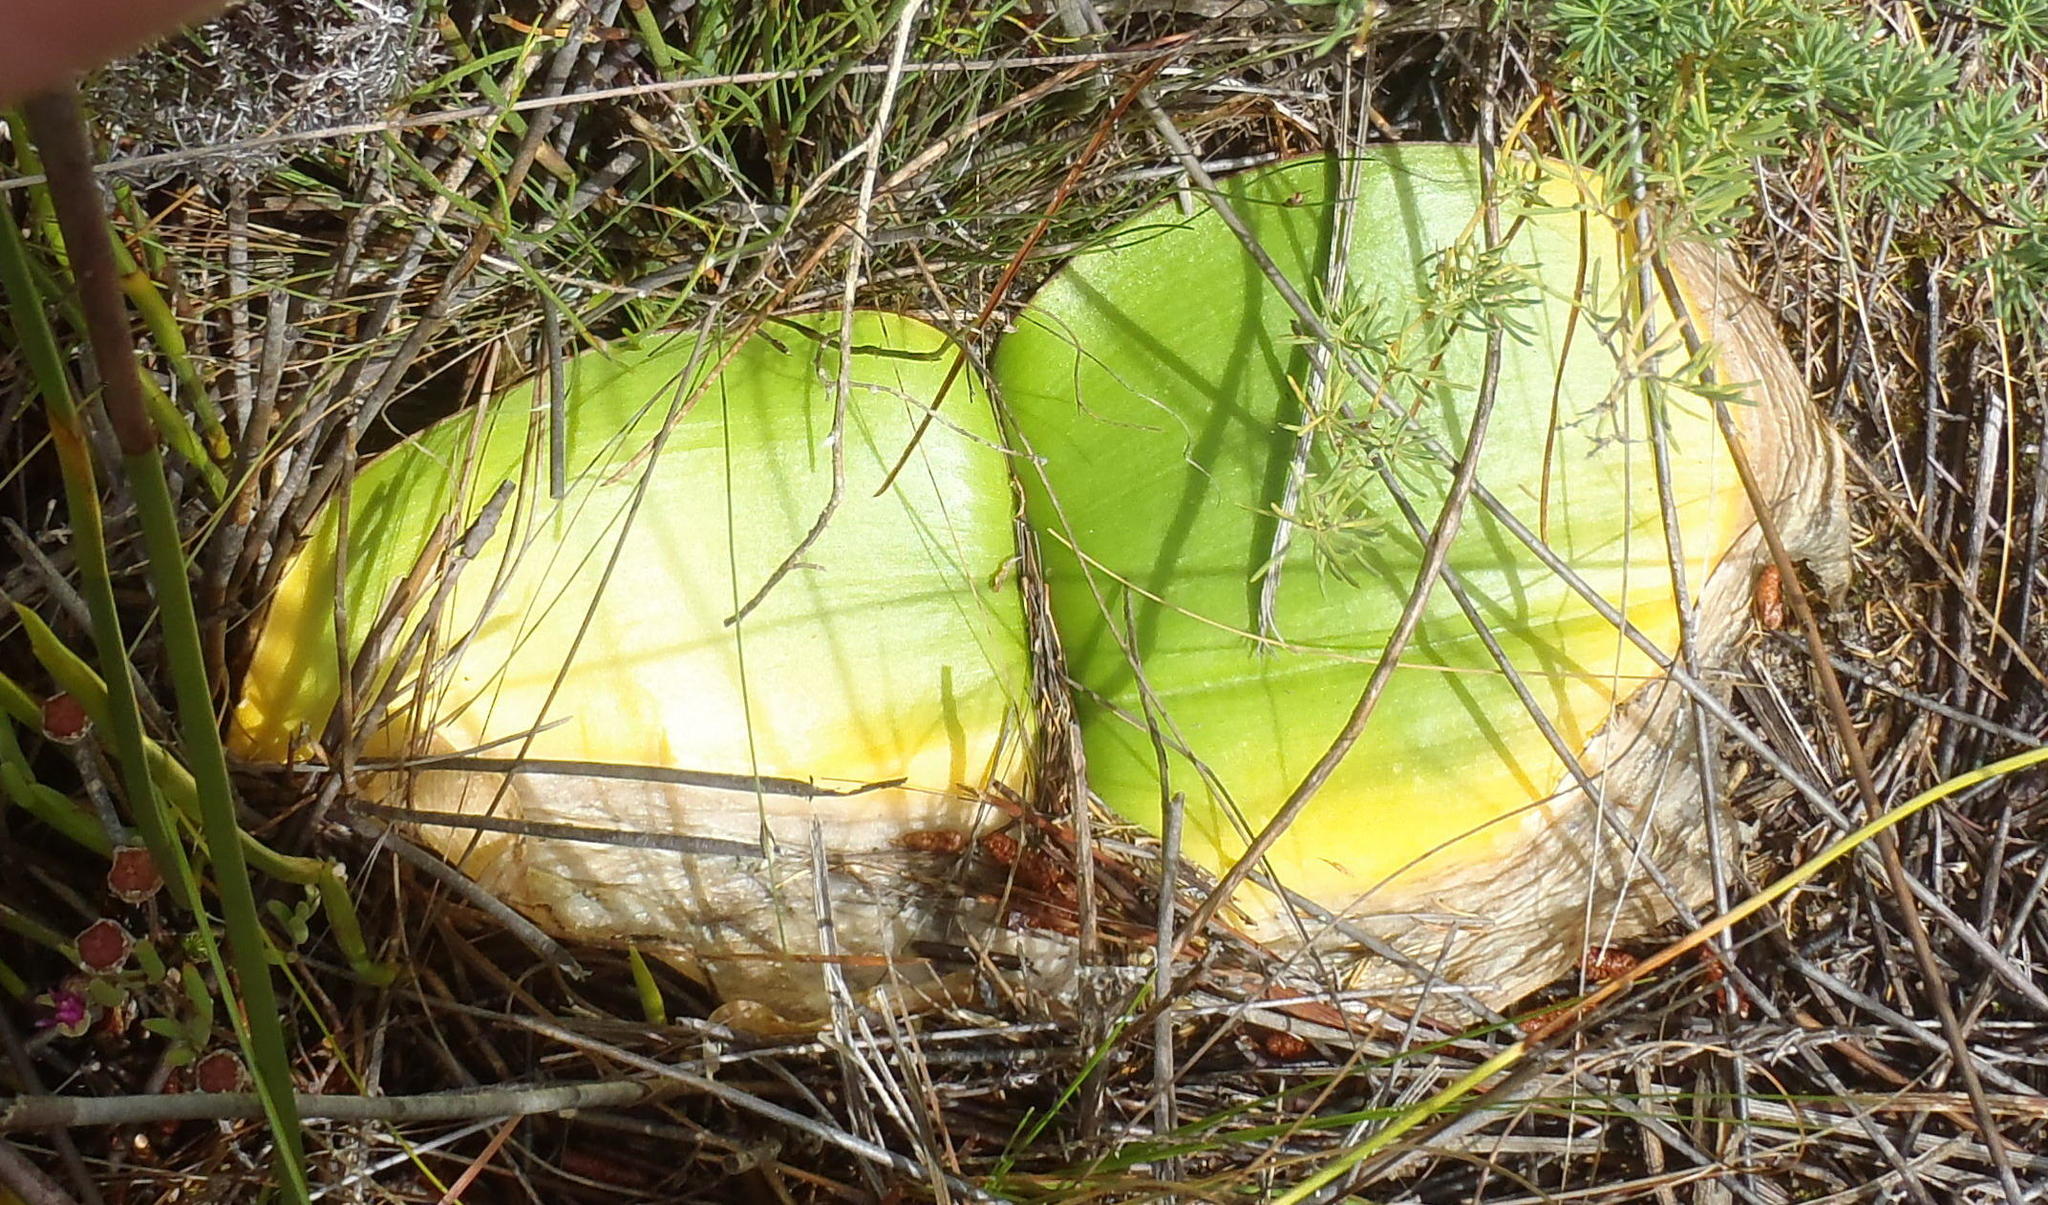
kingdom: Plantae
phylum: Tracheophyta
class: Liliopsida
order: Asparagales
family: Amaryllidaceae
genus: Haemanthus
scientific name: Haemanthus sanguineus
